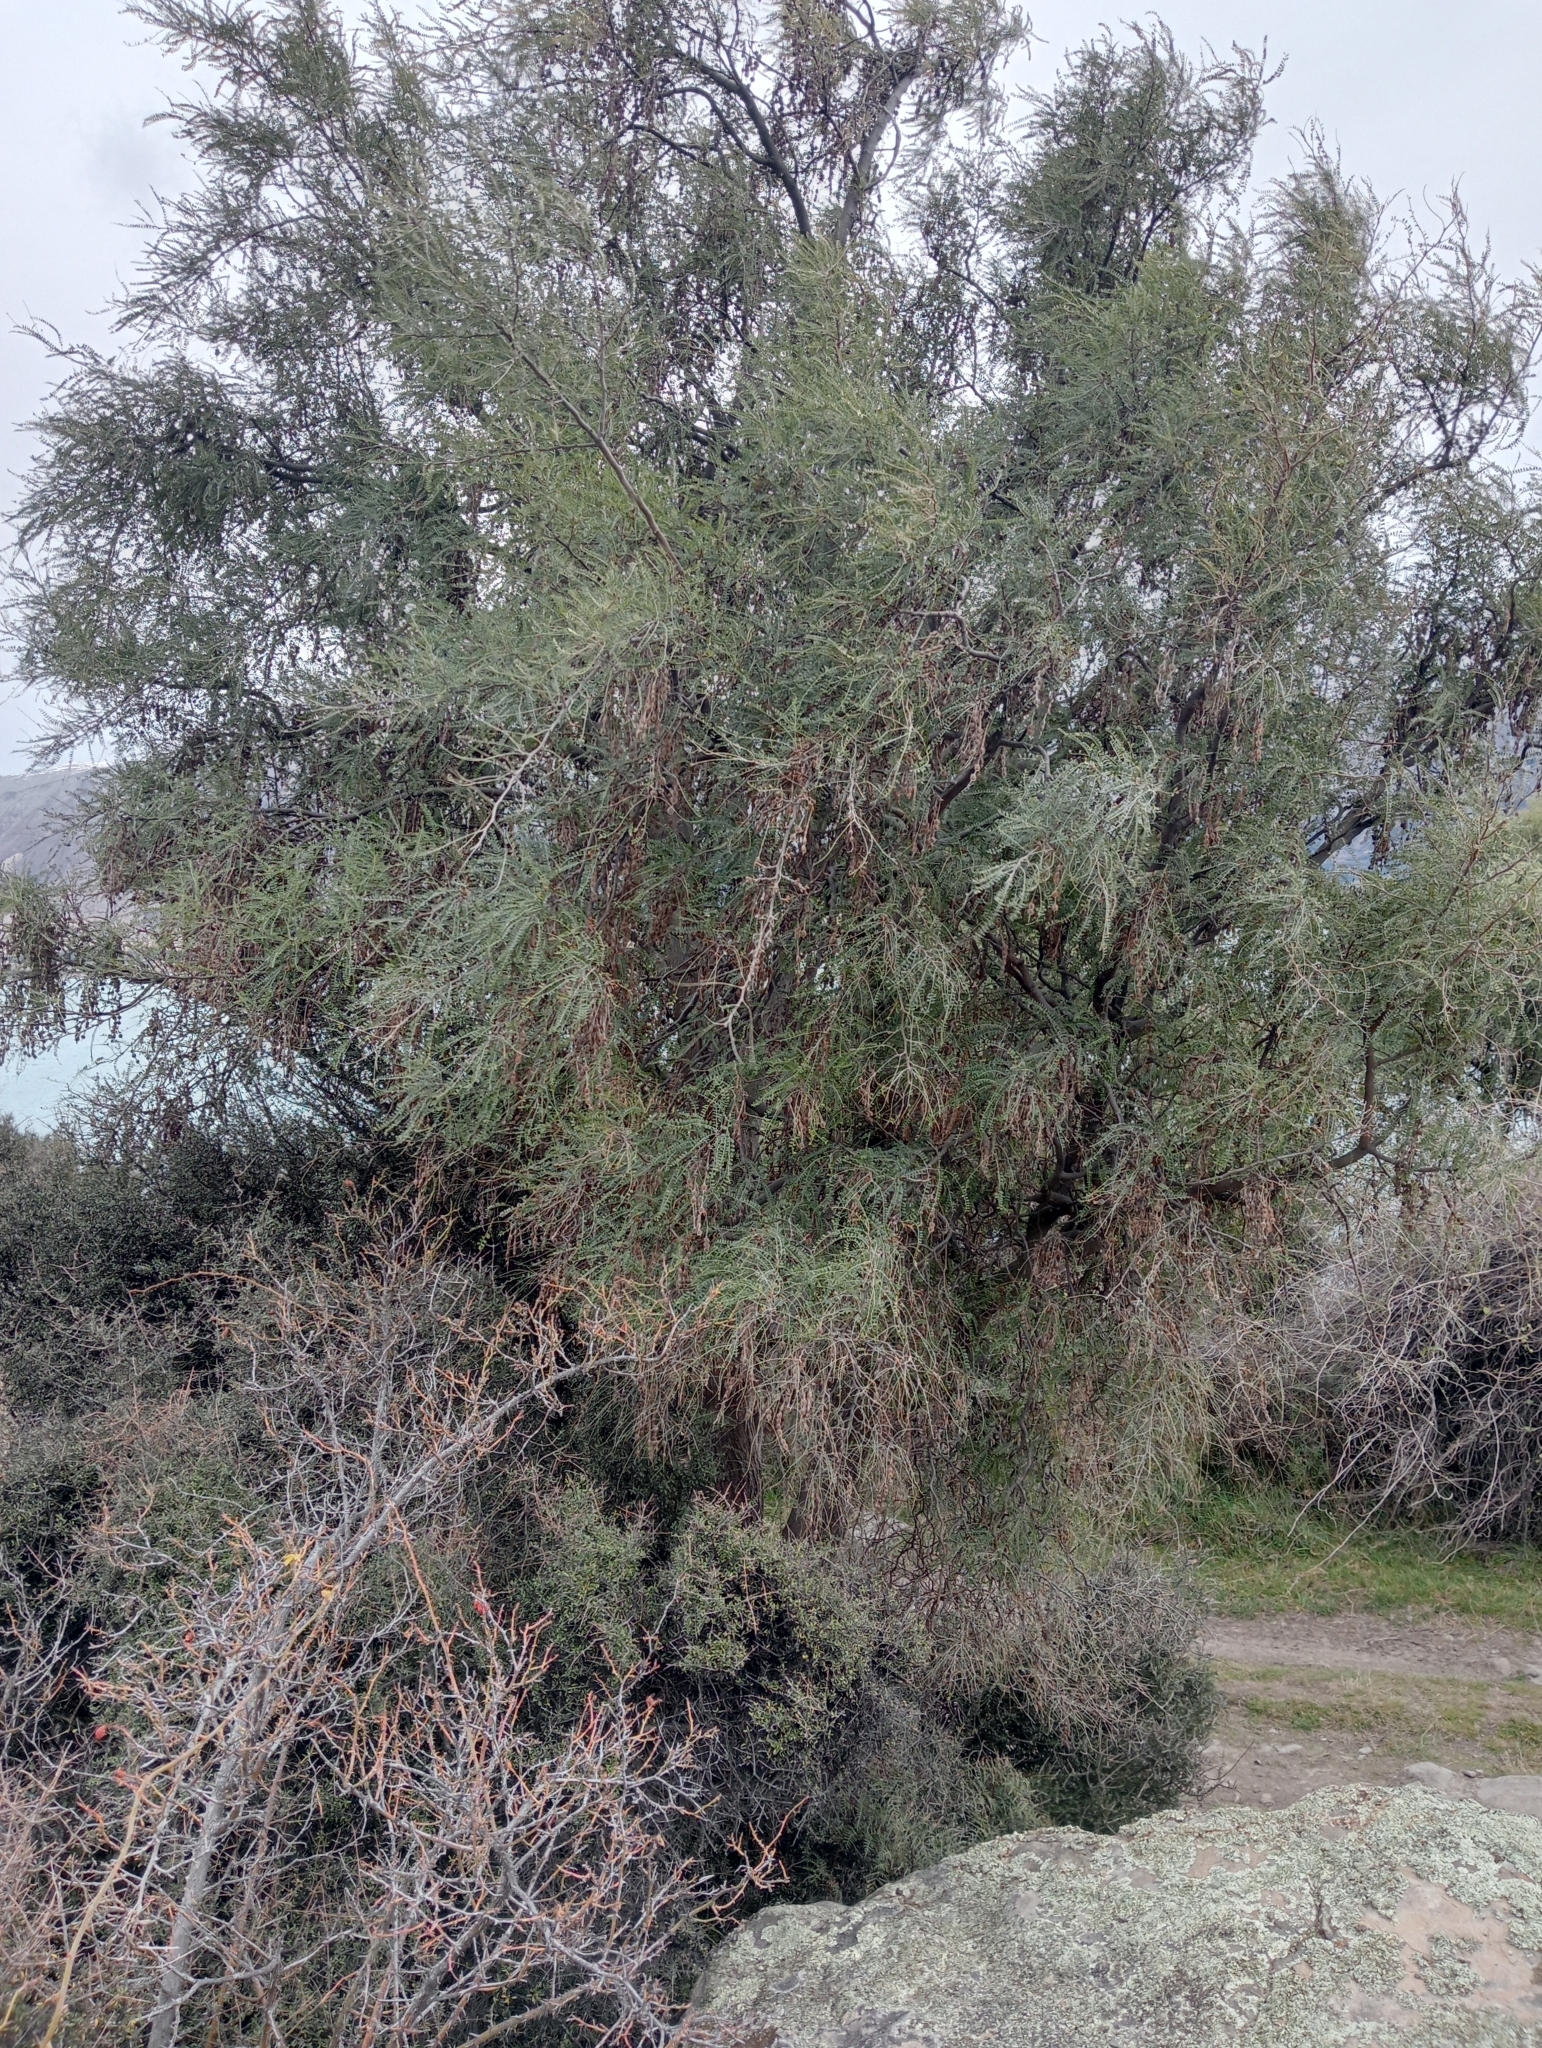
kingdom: Plantae
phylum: Tracheophyta
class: Magnoliopsida
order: Fabales
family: Fabaceae
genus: Sophora
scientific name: Sophora microphylla
